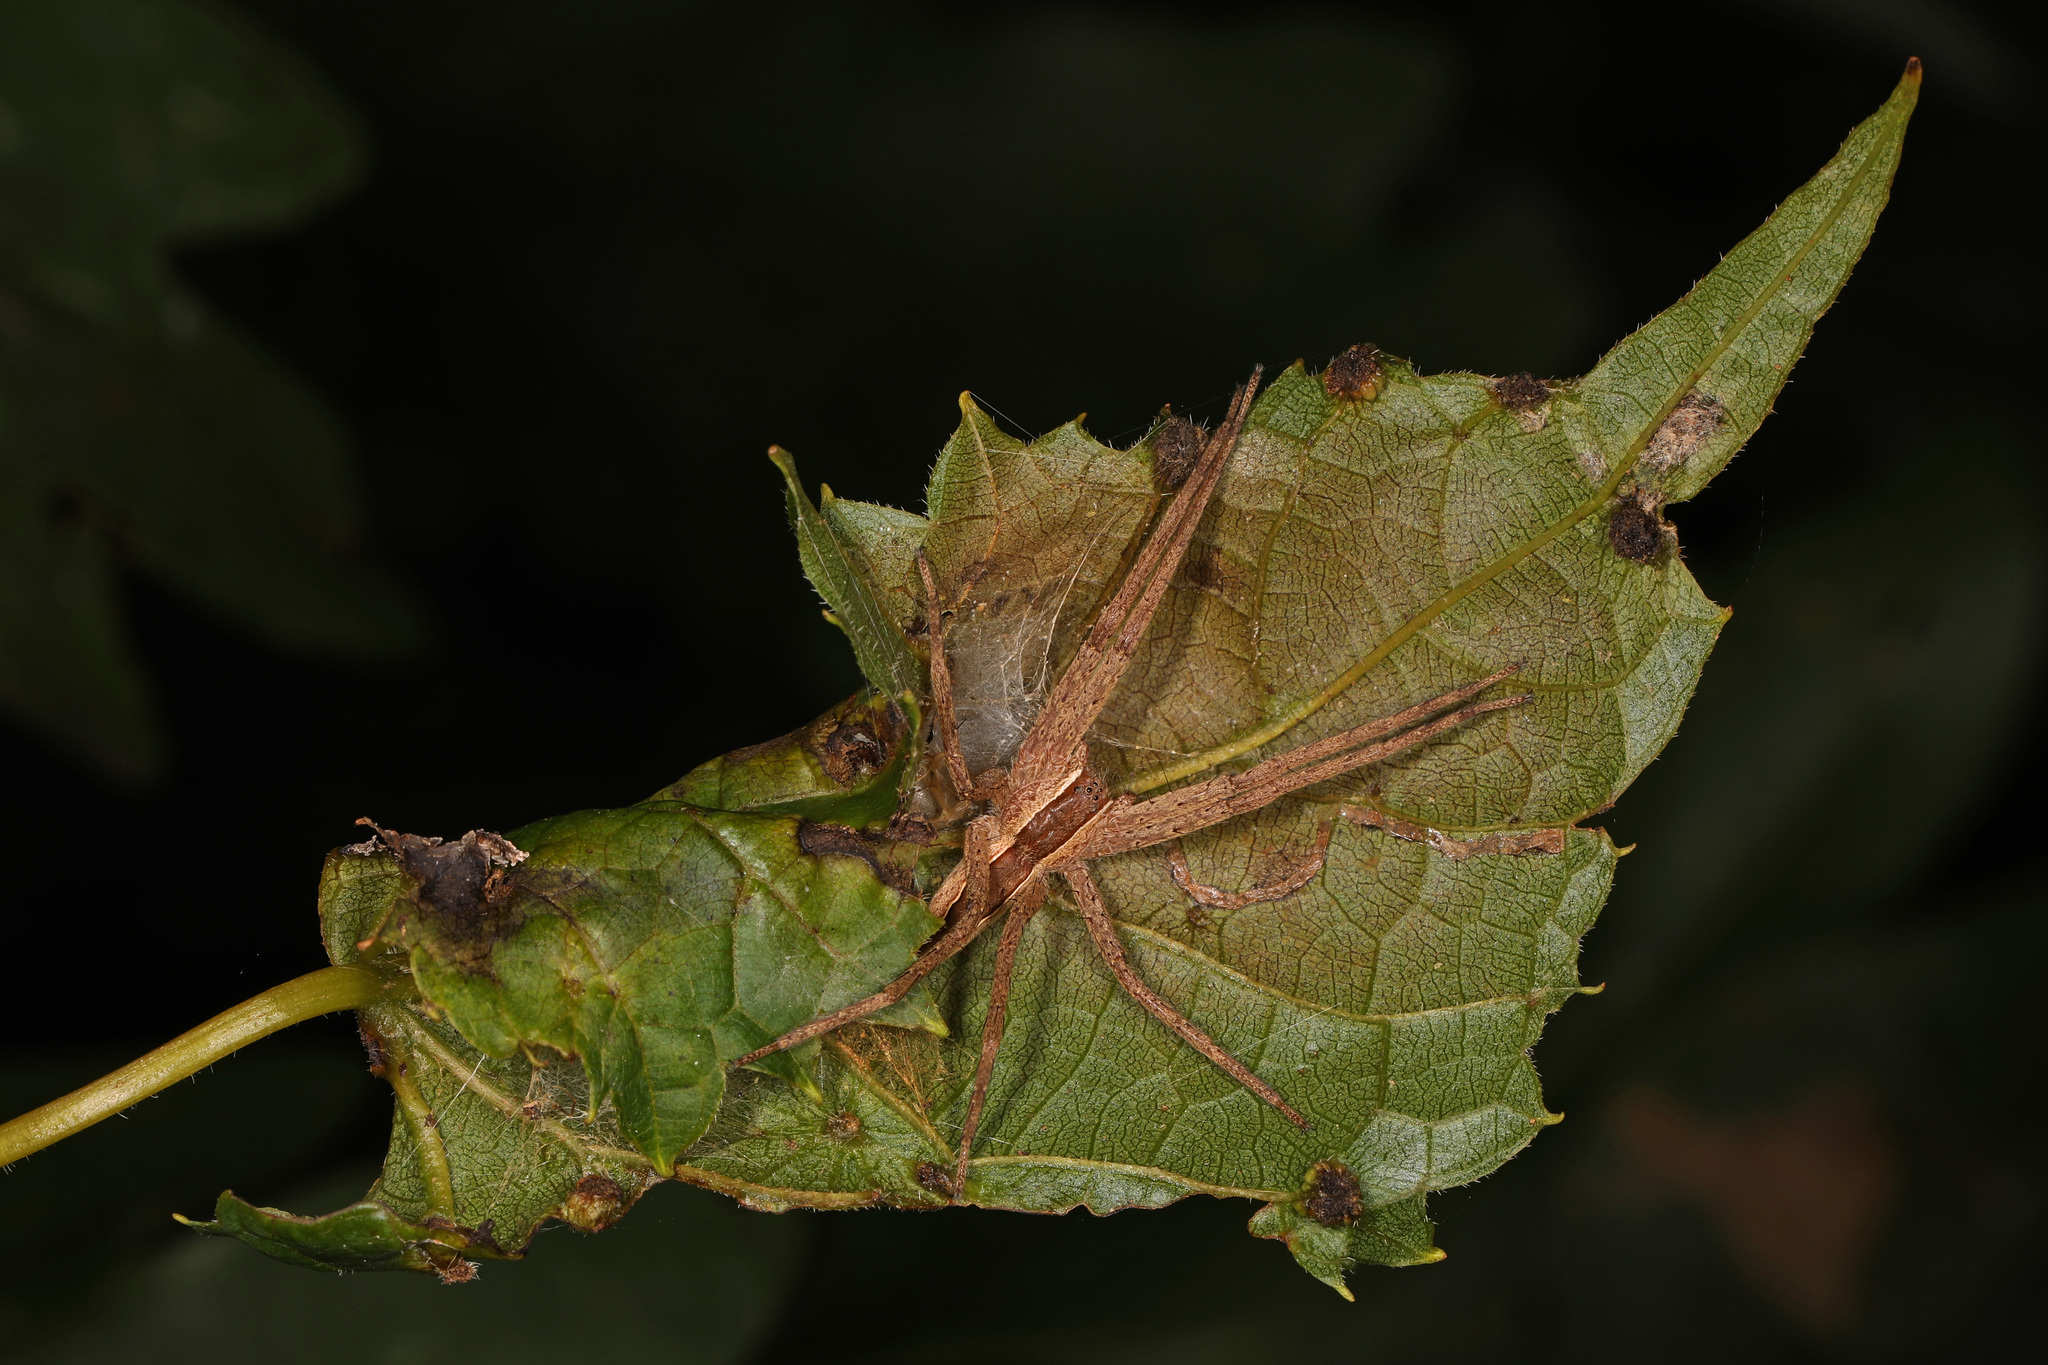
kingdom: Animalia
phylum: Arthropoda
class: Arachnida
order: Araneae
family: Pisauridae
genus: Pisaurina
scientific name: Pisaurina mira
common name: American nursery web spider
